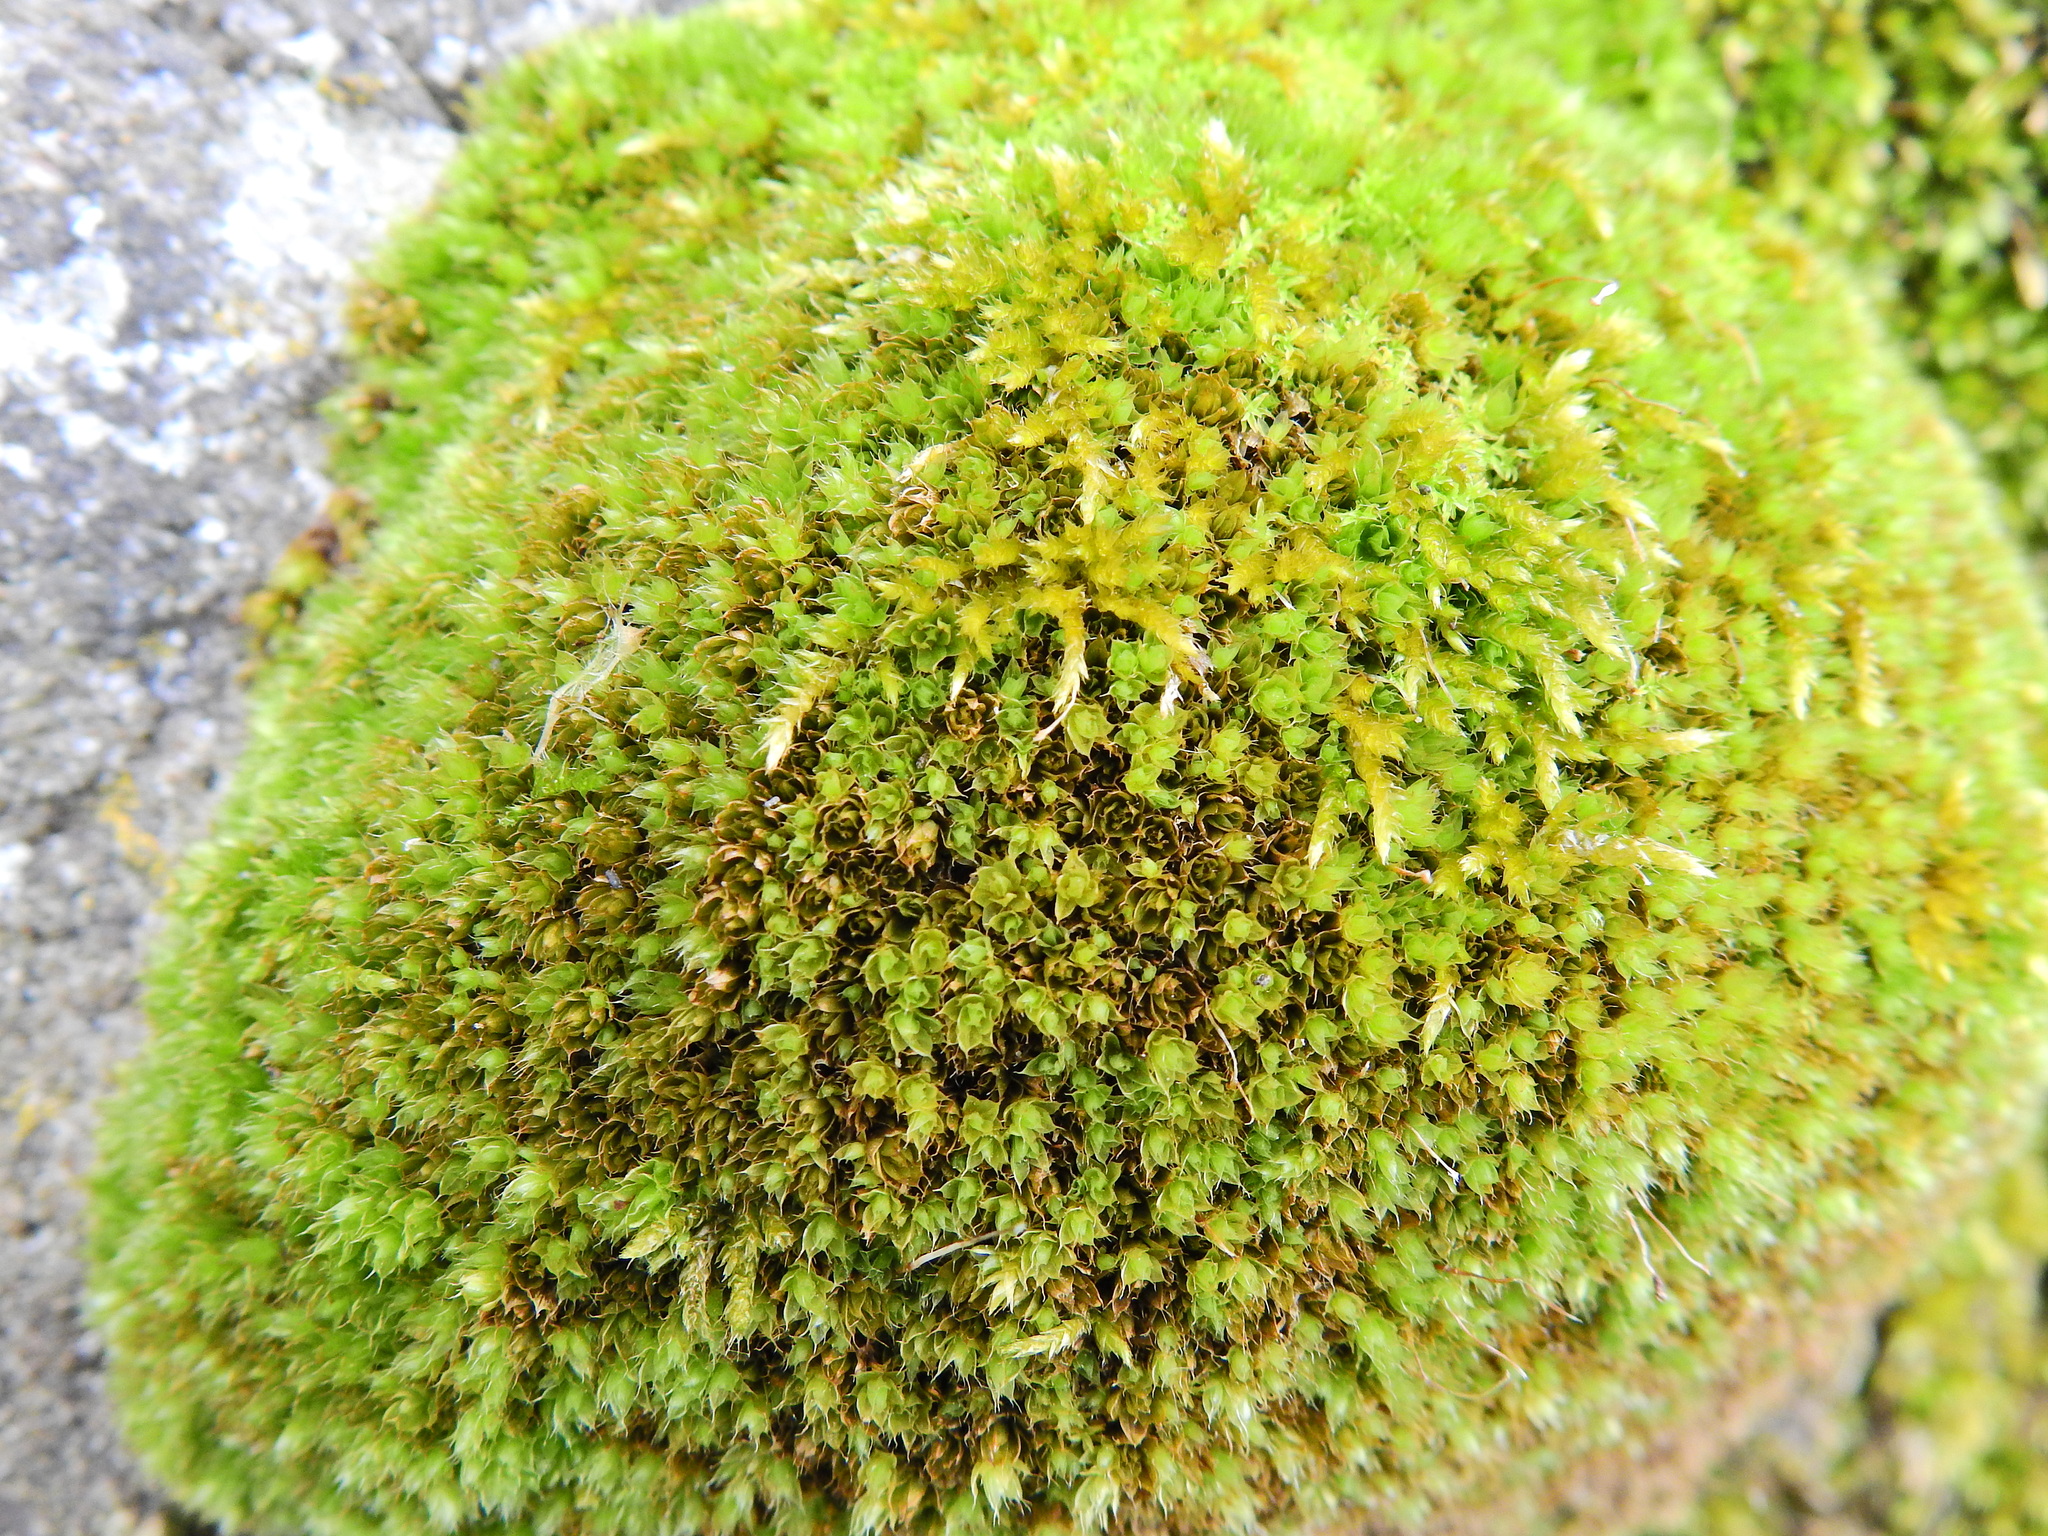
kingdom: Plantae
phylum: Bryophyta
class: Bryopsida
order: Bryales
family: Bryaceae
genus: Rosulabryum
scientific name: Rosulabryum capillare
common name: Capillary thread-moss
